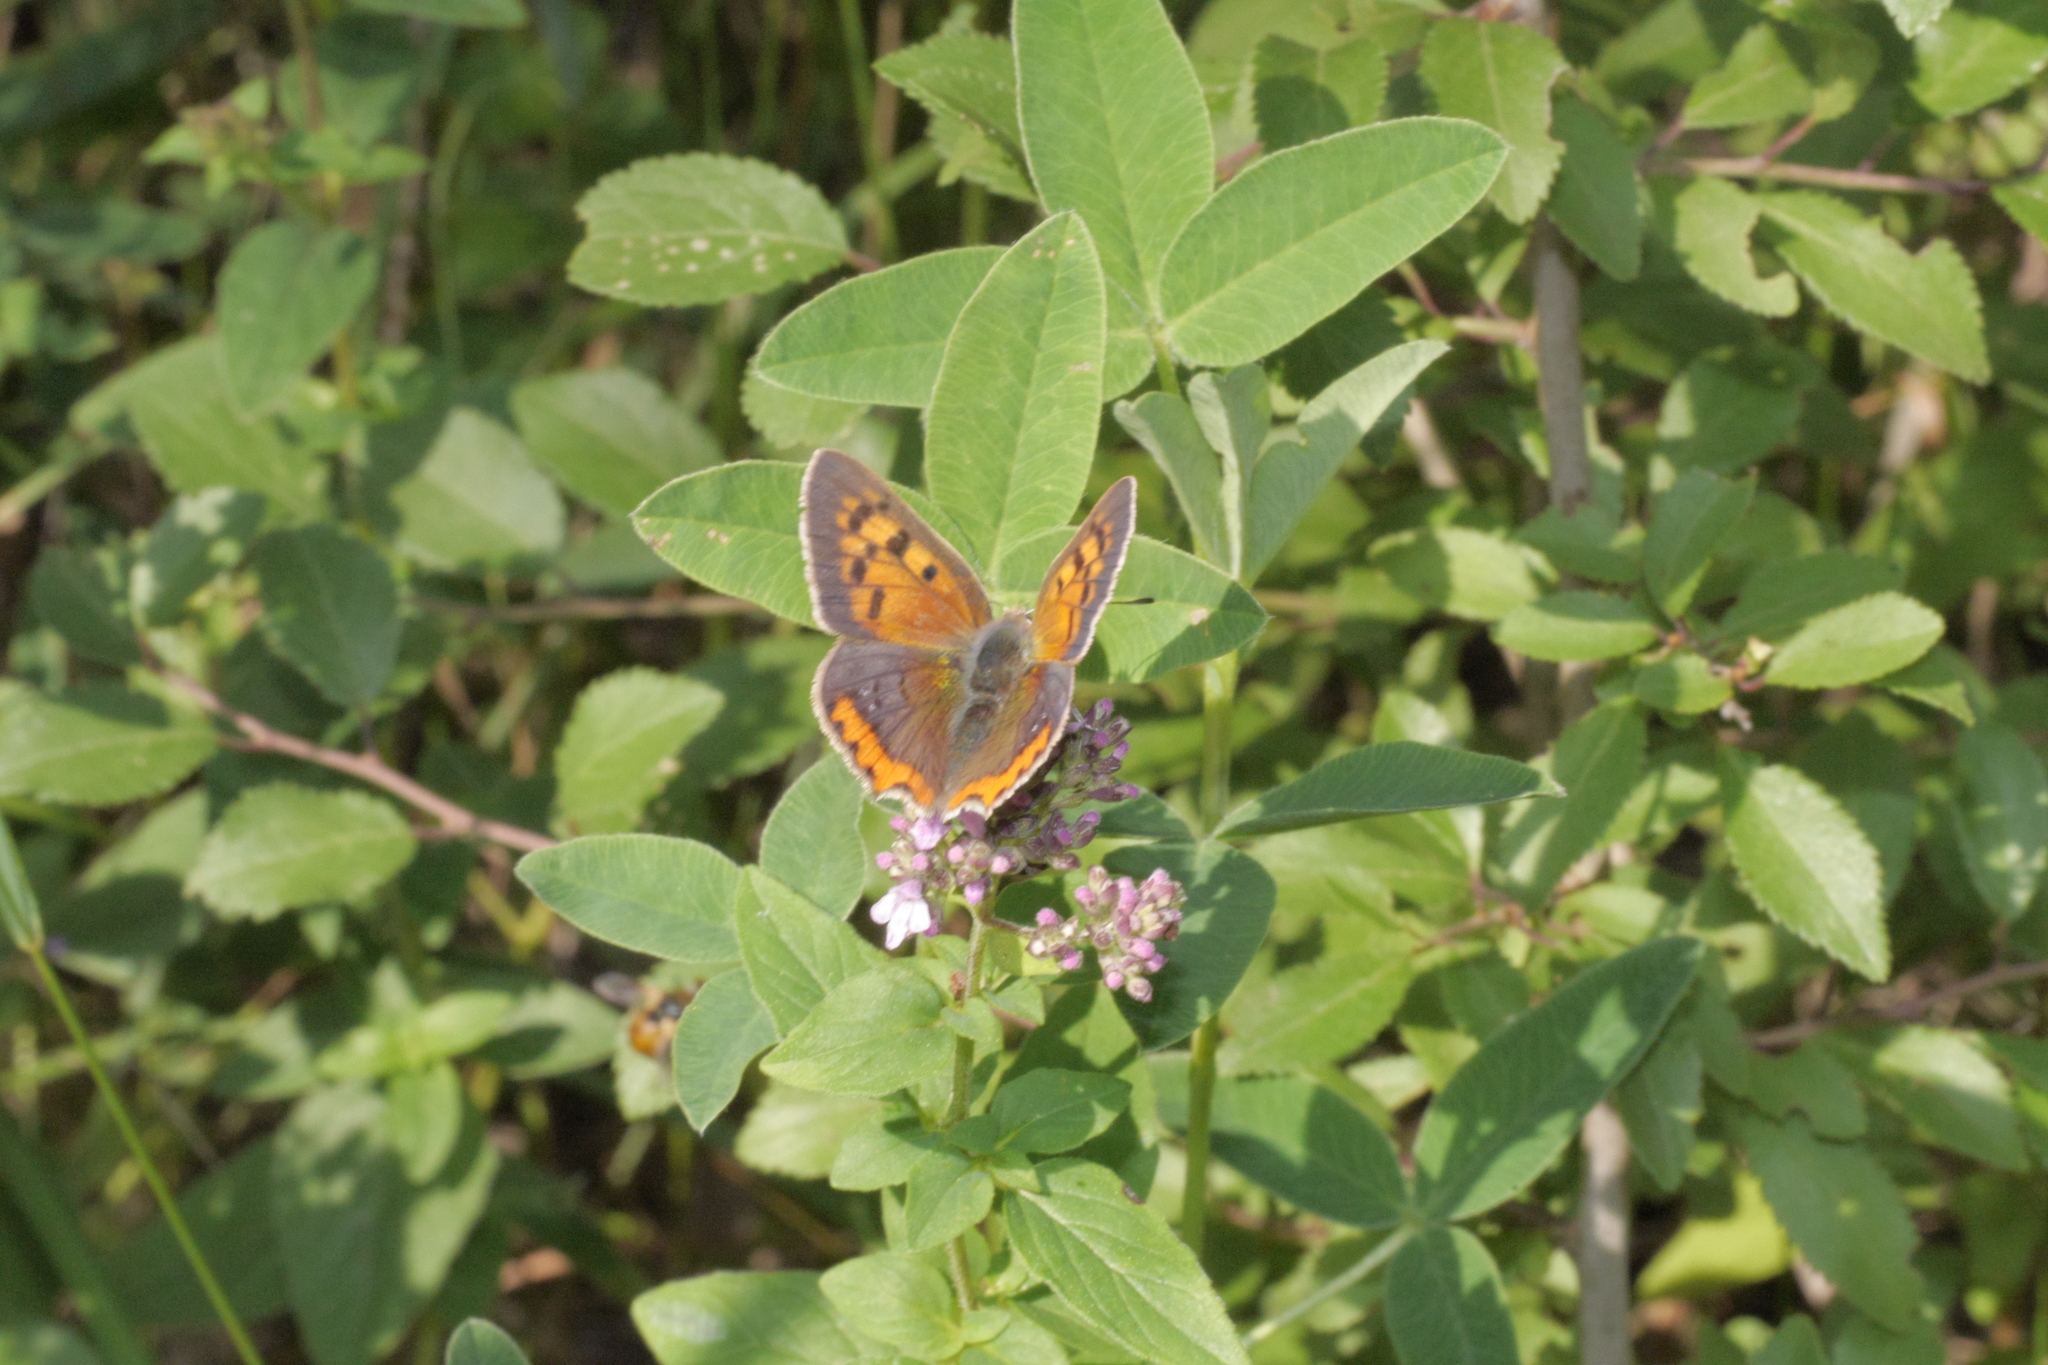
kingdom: Animalia
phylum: Arthropoda
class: Insecta
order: Lepidoptera
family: Lycaenidae
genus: Lycaena
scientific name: Lycaena phlaeas
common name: Small copper
